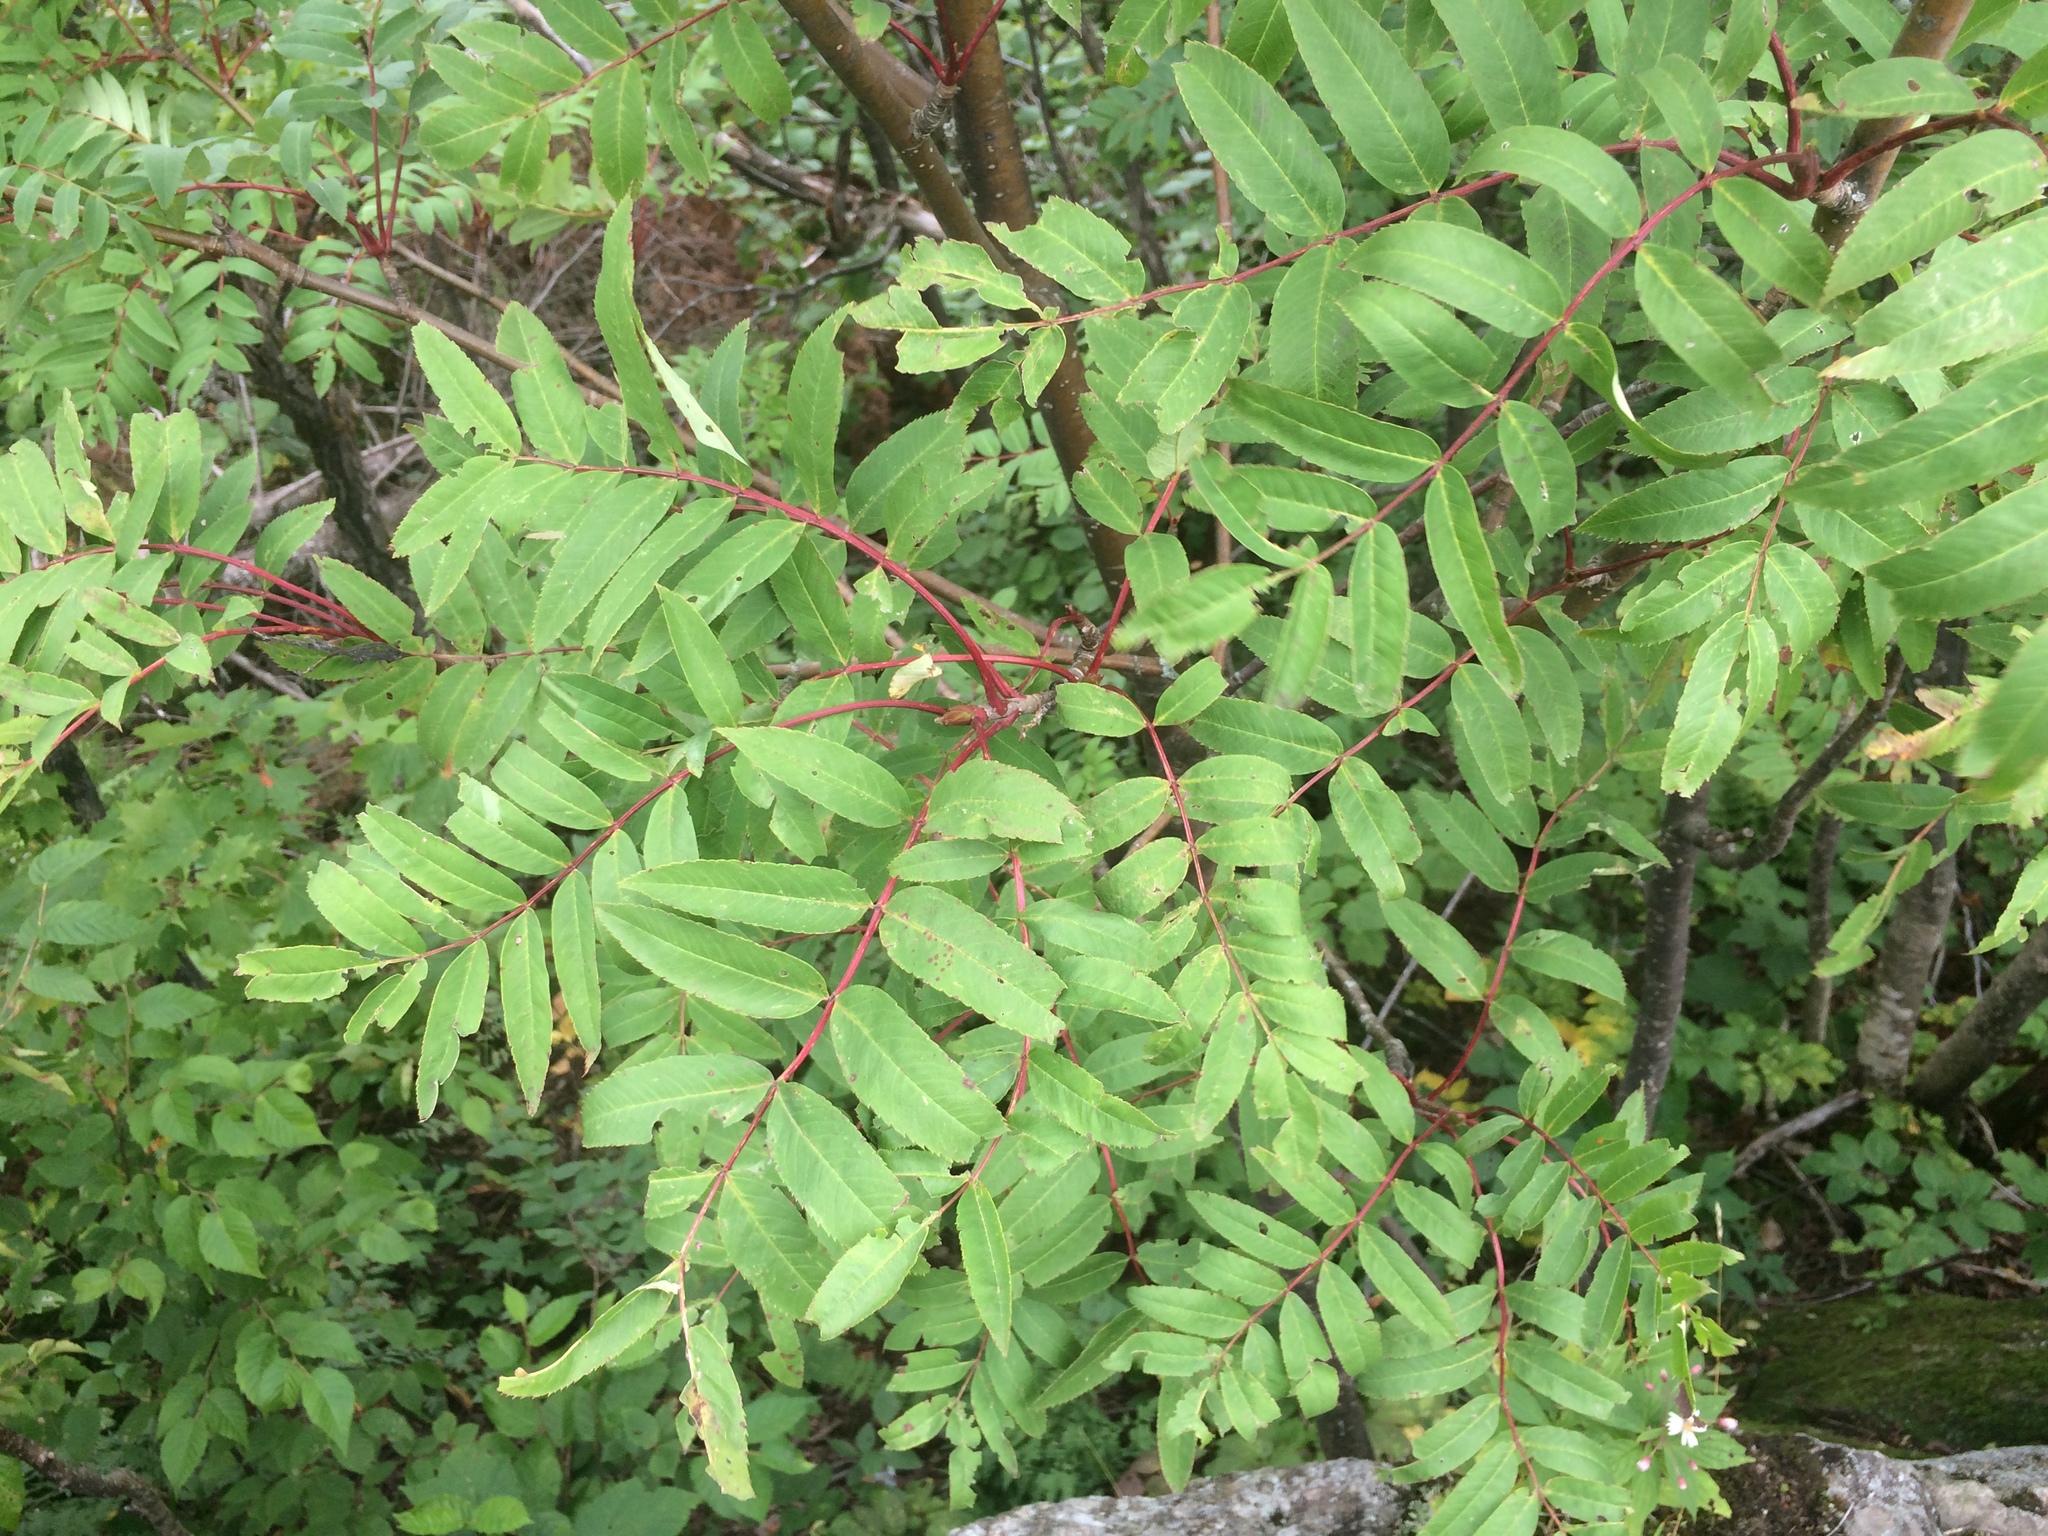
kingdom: Plantae
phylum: Tracheophyta
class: Magnoliopsida
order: Rosales
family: Rosaceae
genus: Sorbus
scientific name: Sorbus americana
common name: American mountain-ash
